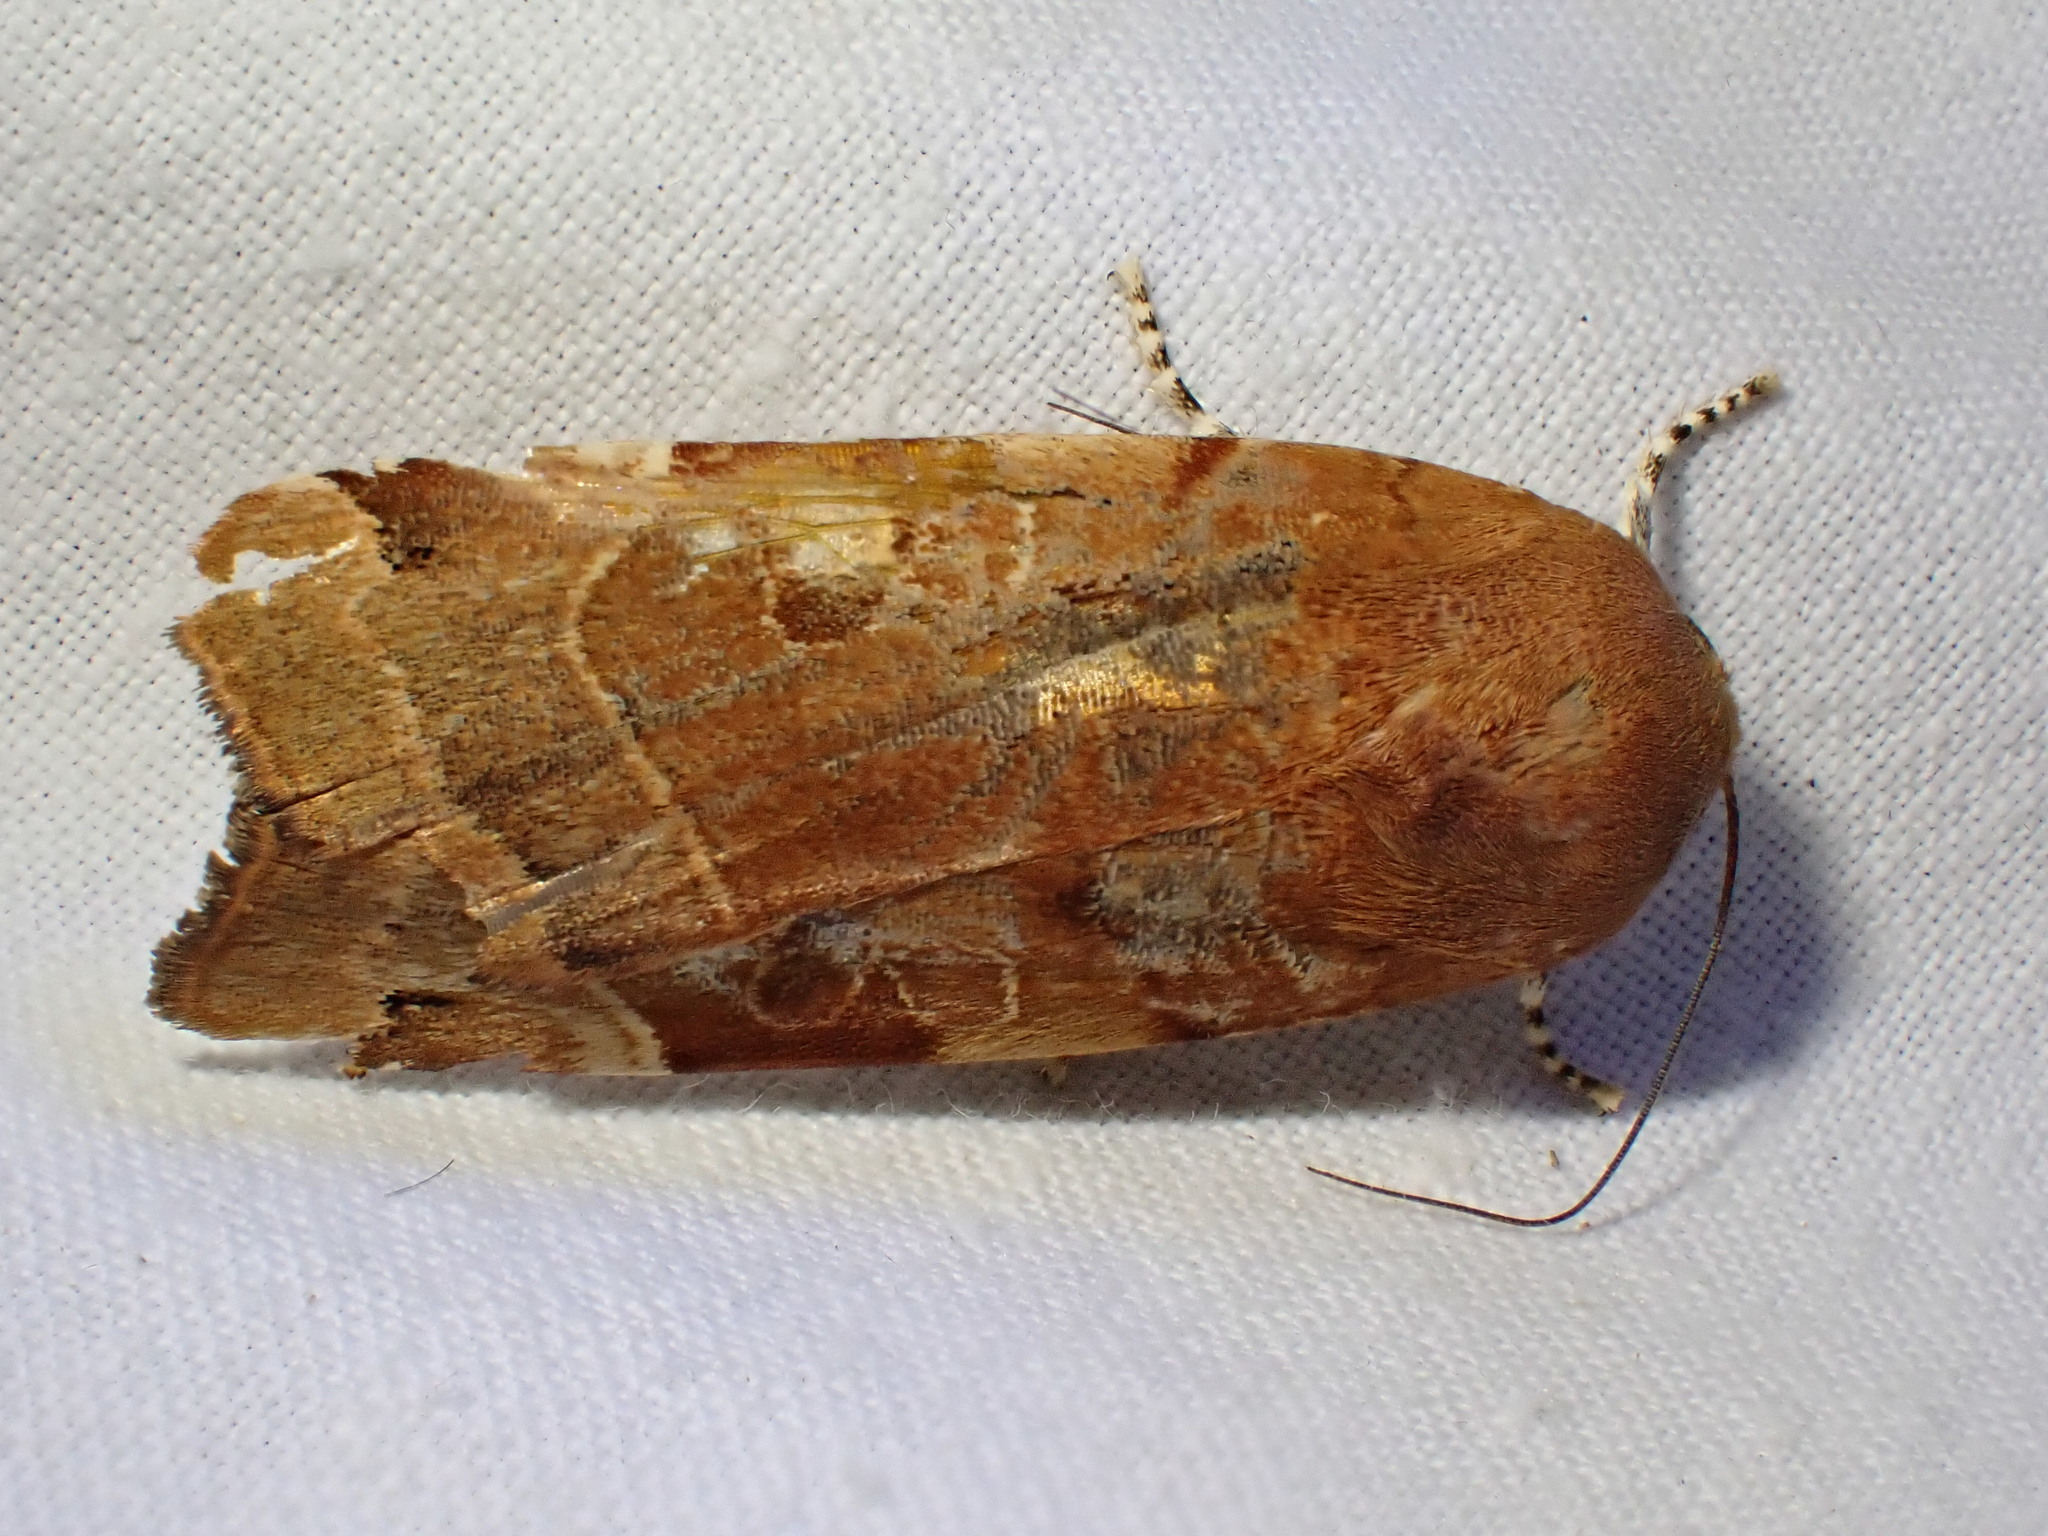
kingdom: Animalia
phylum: Arthropoda
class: Insecta
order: Lepidoptera
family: Noctuidae
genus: Noctua
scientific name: Noctua fimbriata
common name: Broad-bordered yellow underwing
